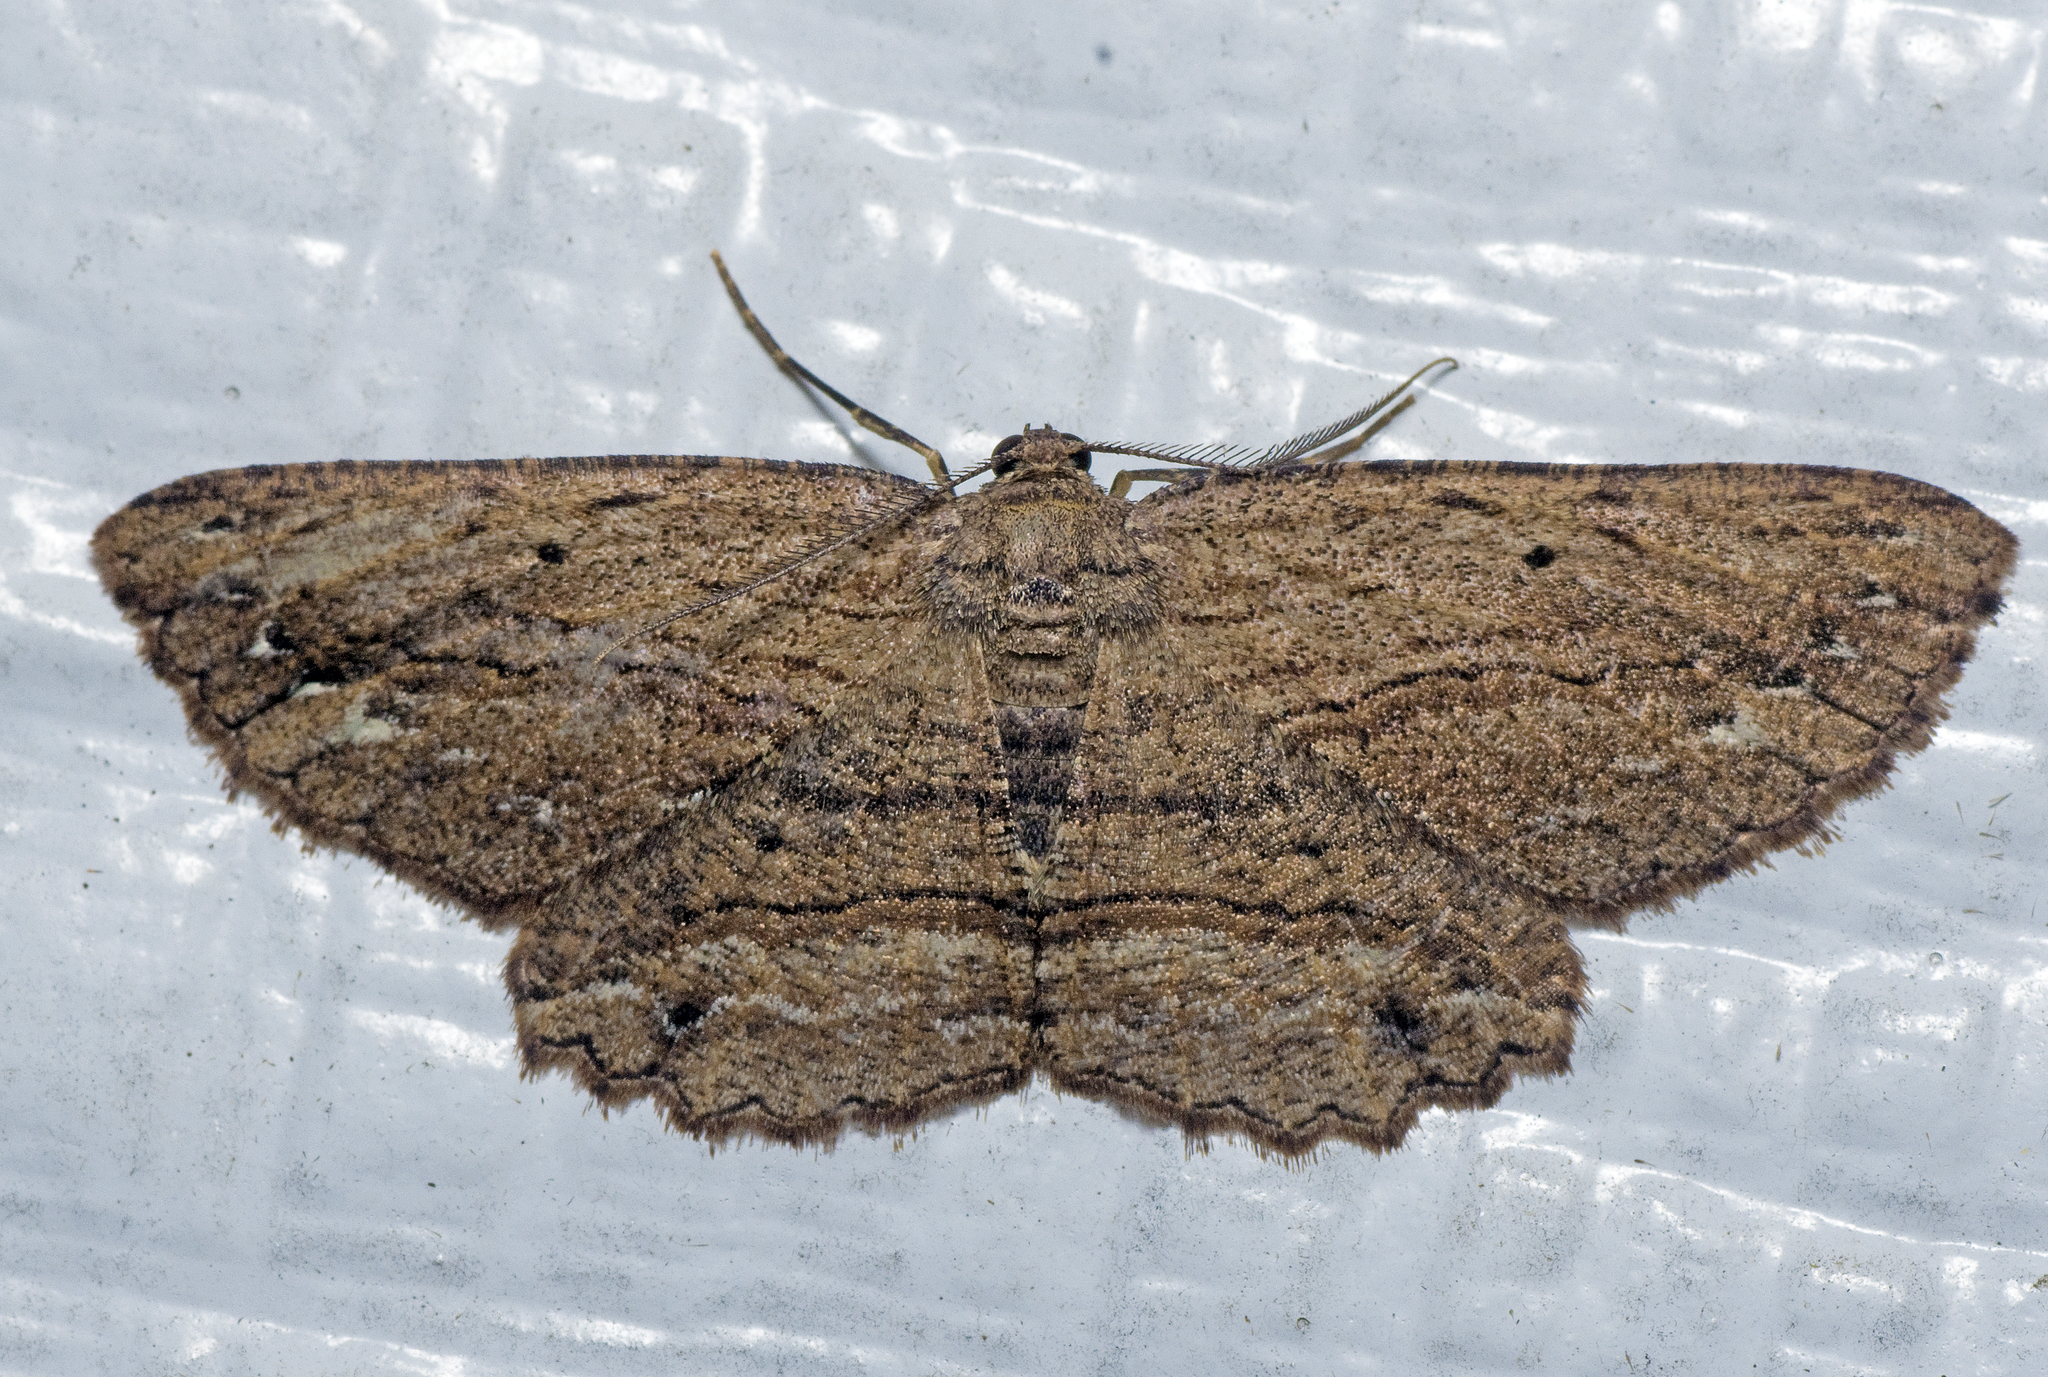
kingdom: Animalia
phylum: Arthropoda
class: Insecta
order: Lepidoptera
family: Geometridae
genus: Hypomecis
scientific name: Hypomecis agoraea
